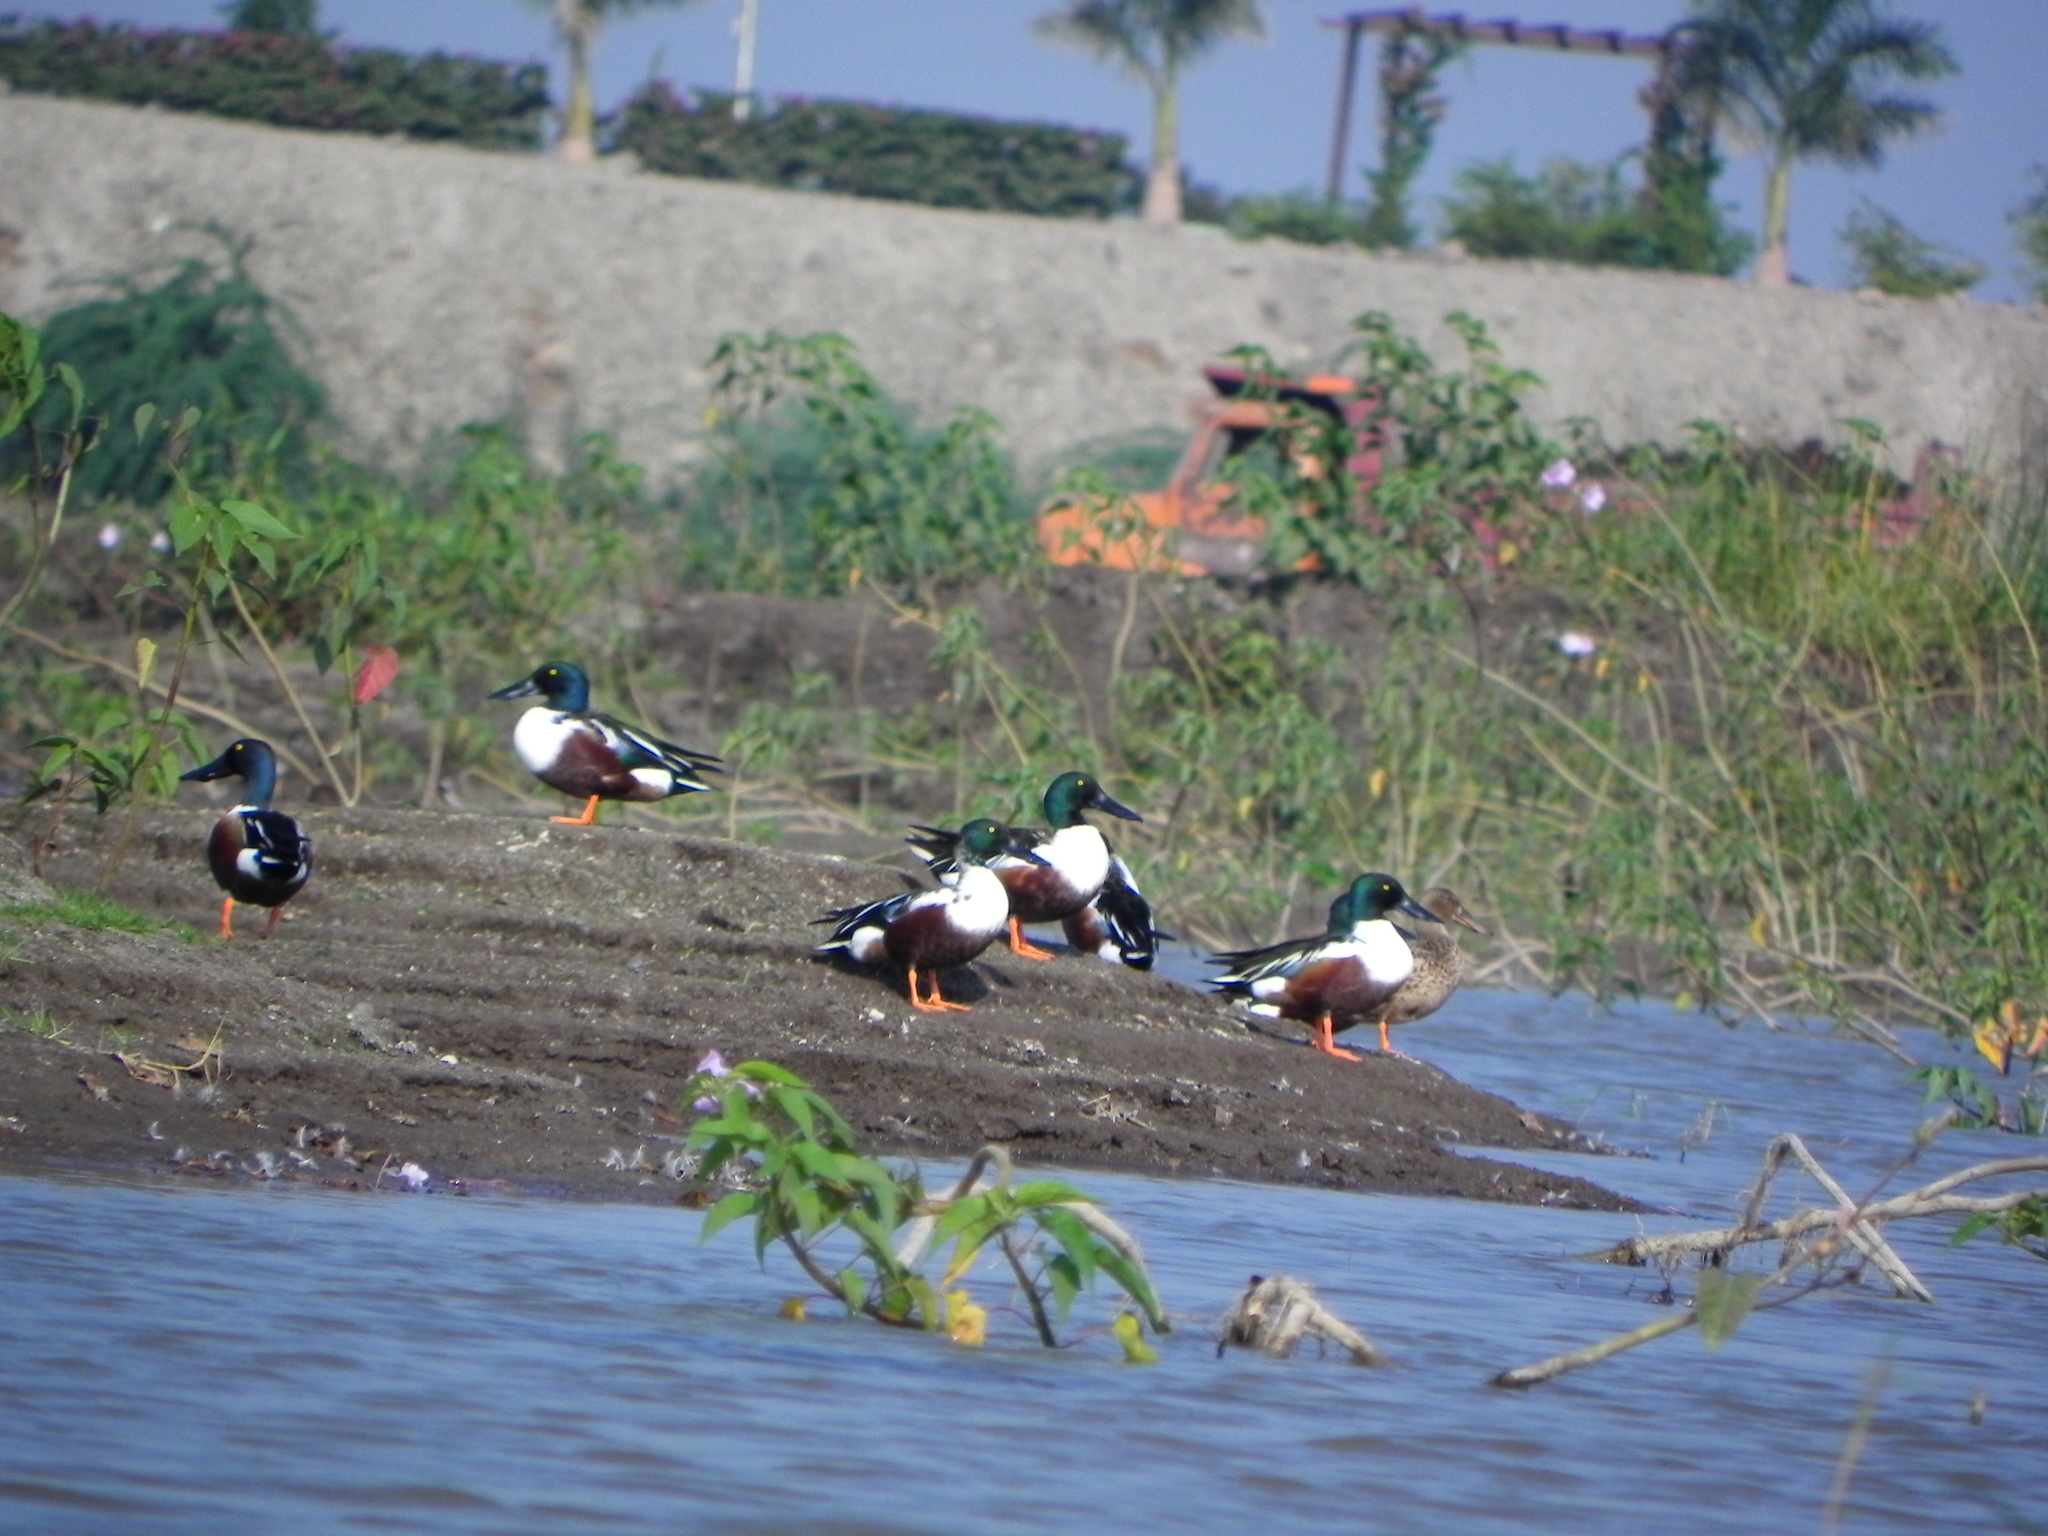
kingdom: Animalia
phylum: Chordata
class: Aves
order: Anseriformes
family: Anatidae
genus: Spatula
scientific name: Spatula clypeata
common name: Northern shoveler
